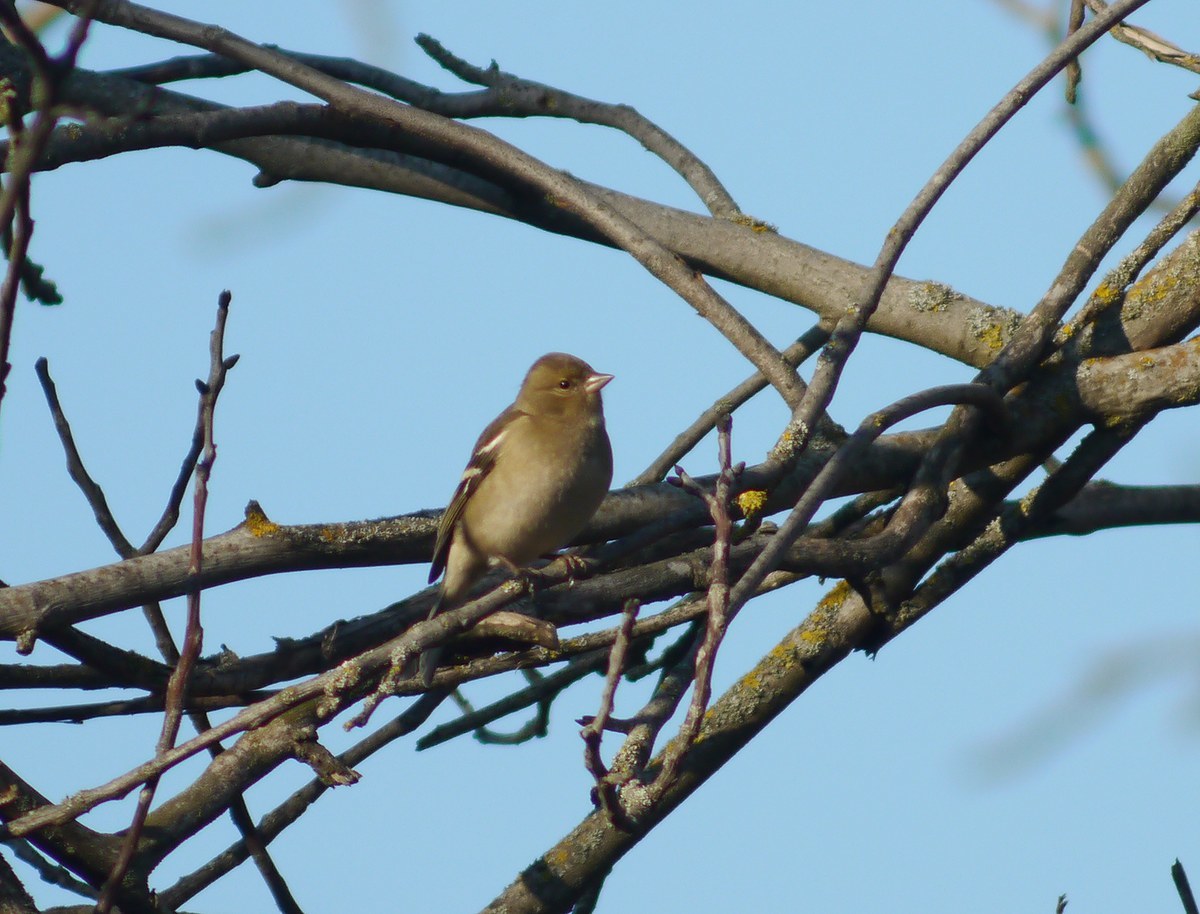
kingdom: Animalia
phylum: Chordata
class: Aves
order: Passeriformes
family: Fringillidae
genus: Fringilla
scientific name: Fringilla coelebs
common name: Common chaffinch
